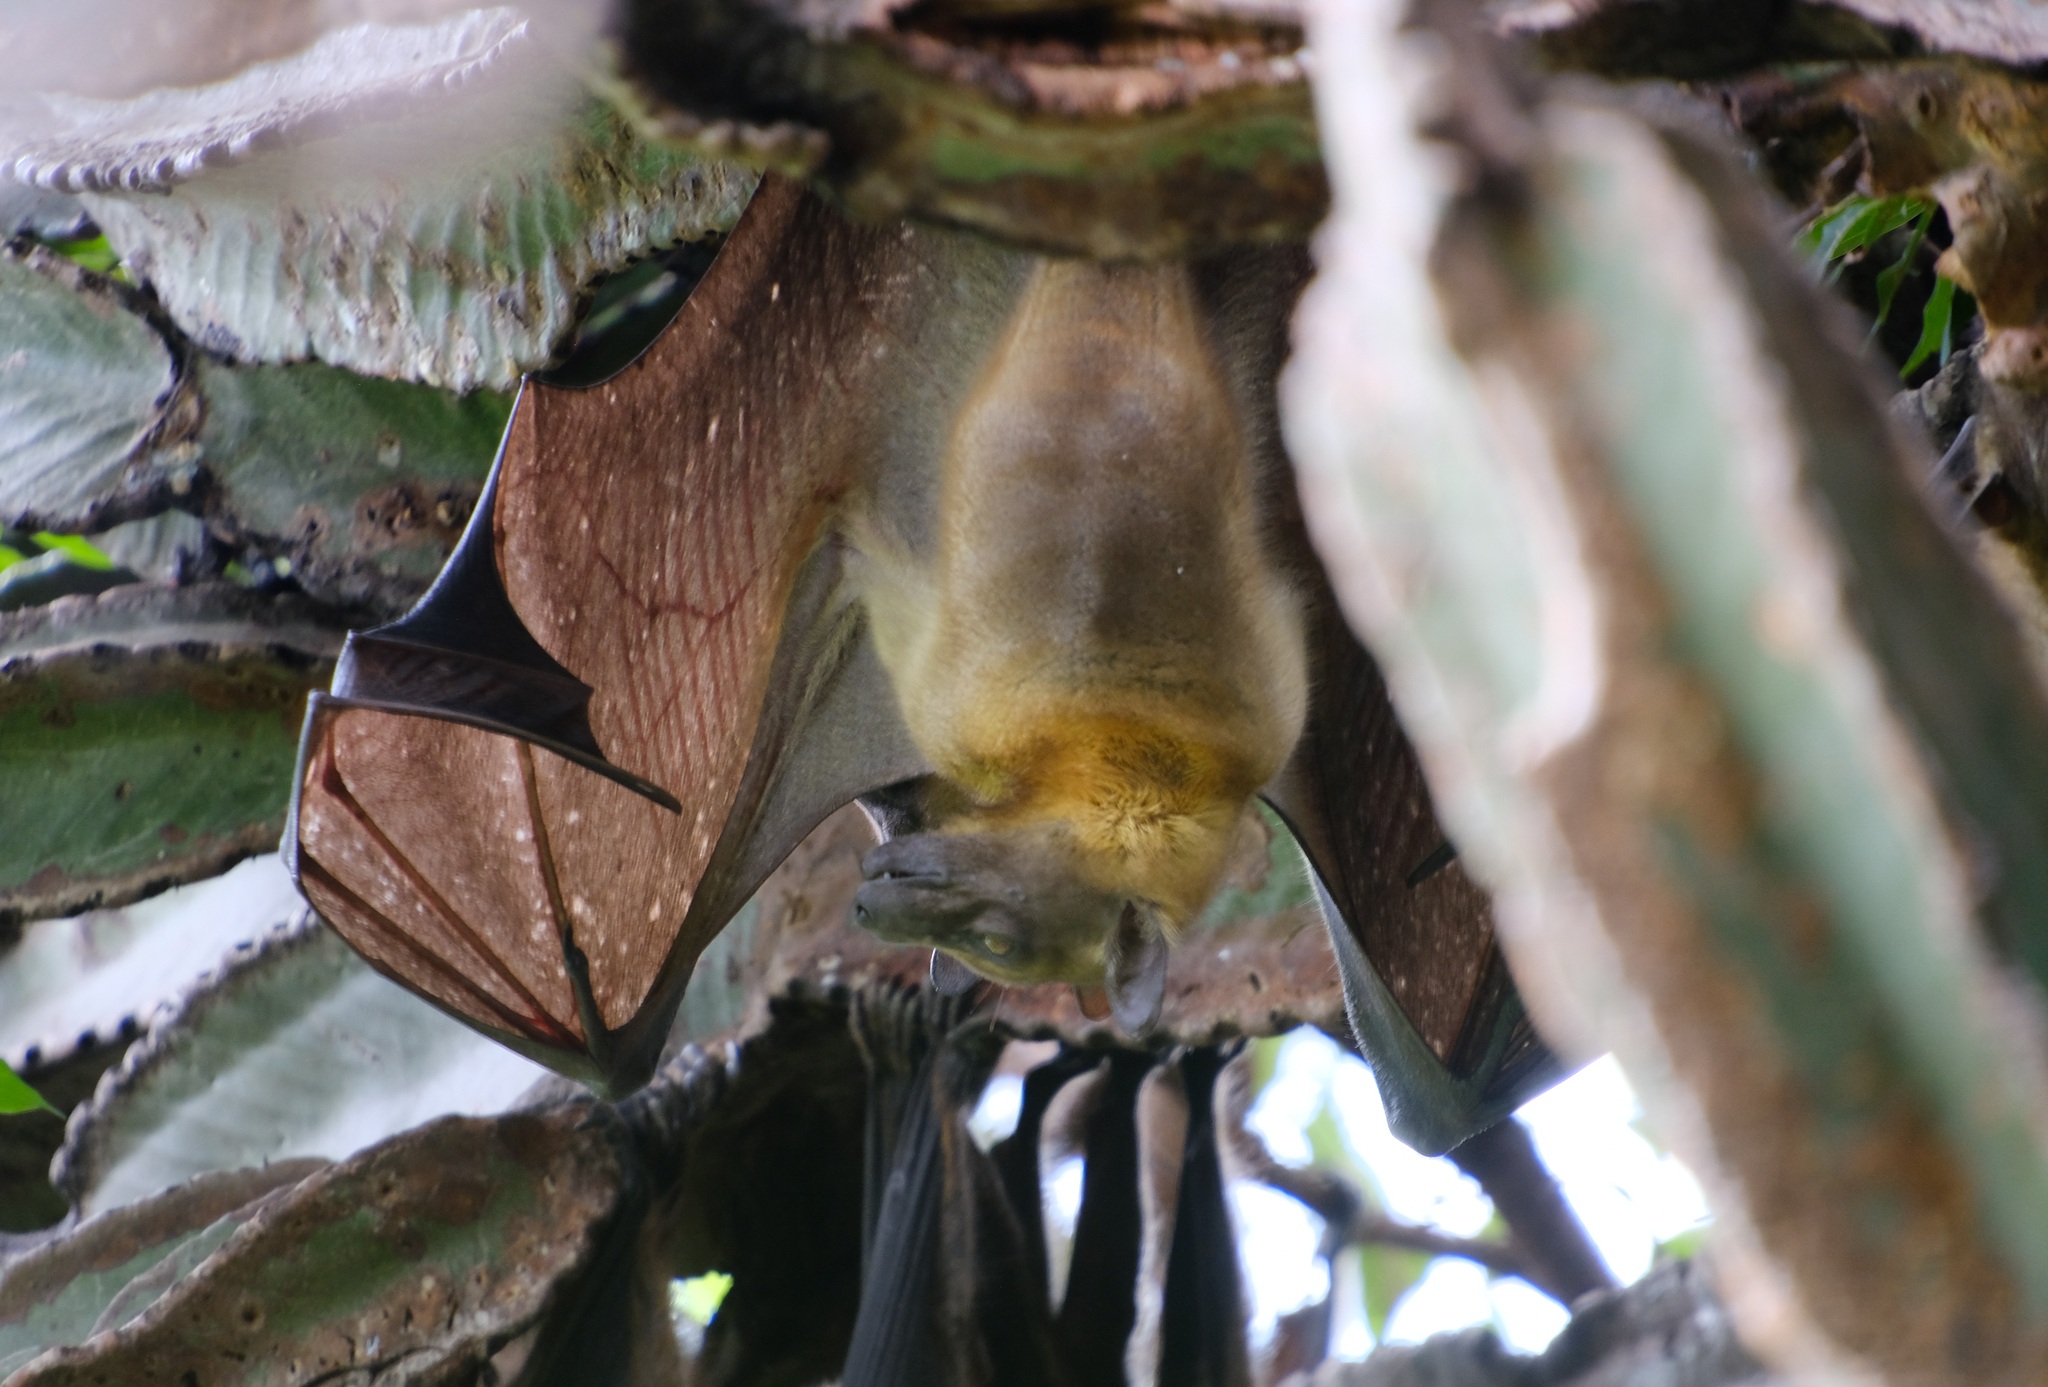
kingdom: Animalia
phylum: Chordata
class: Mammalia
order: Chiroptera
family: Pteropodidae
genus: Eidolon
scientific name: Eidolon helvum
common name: Straw-colored fruit bat
